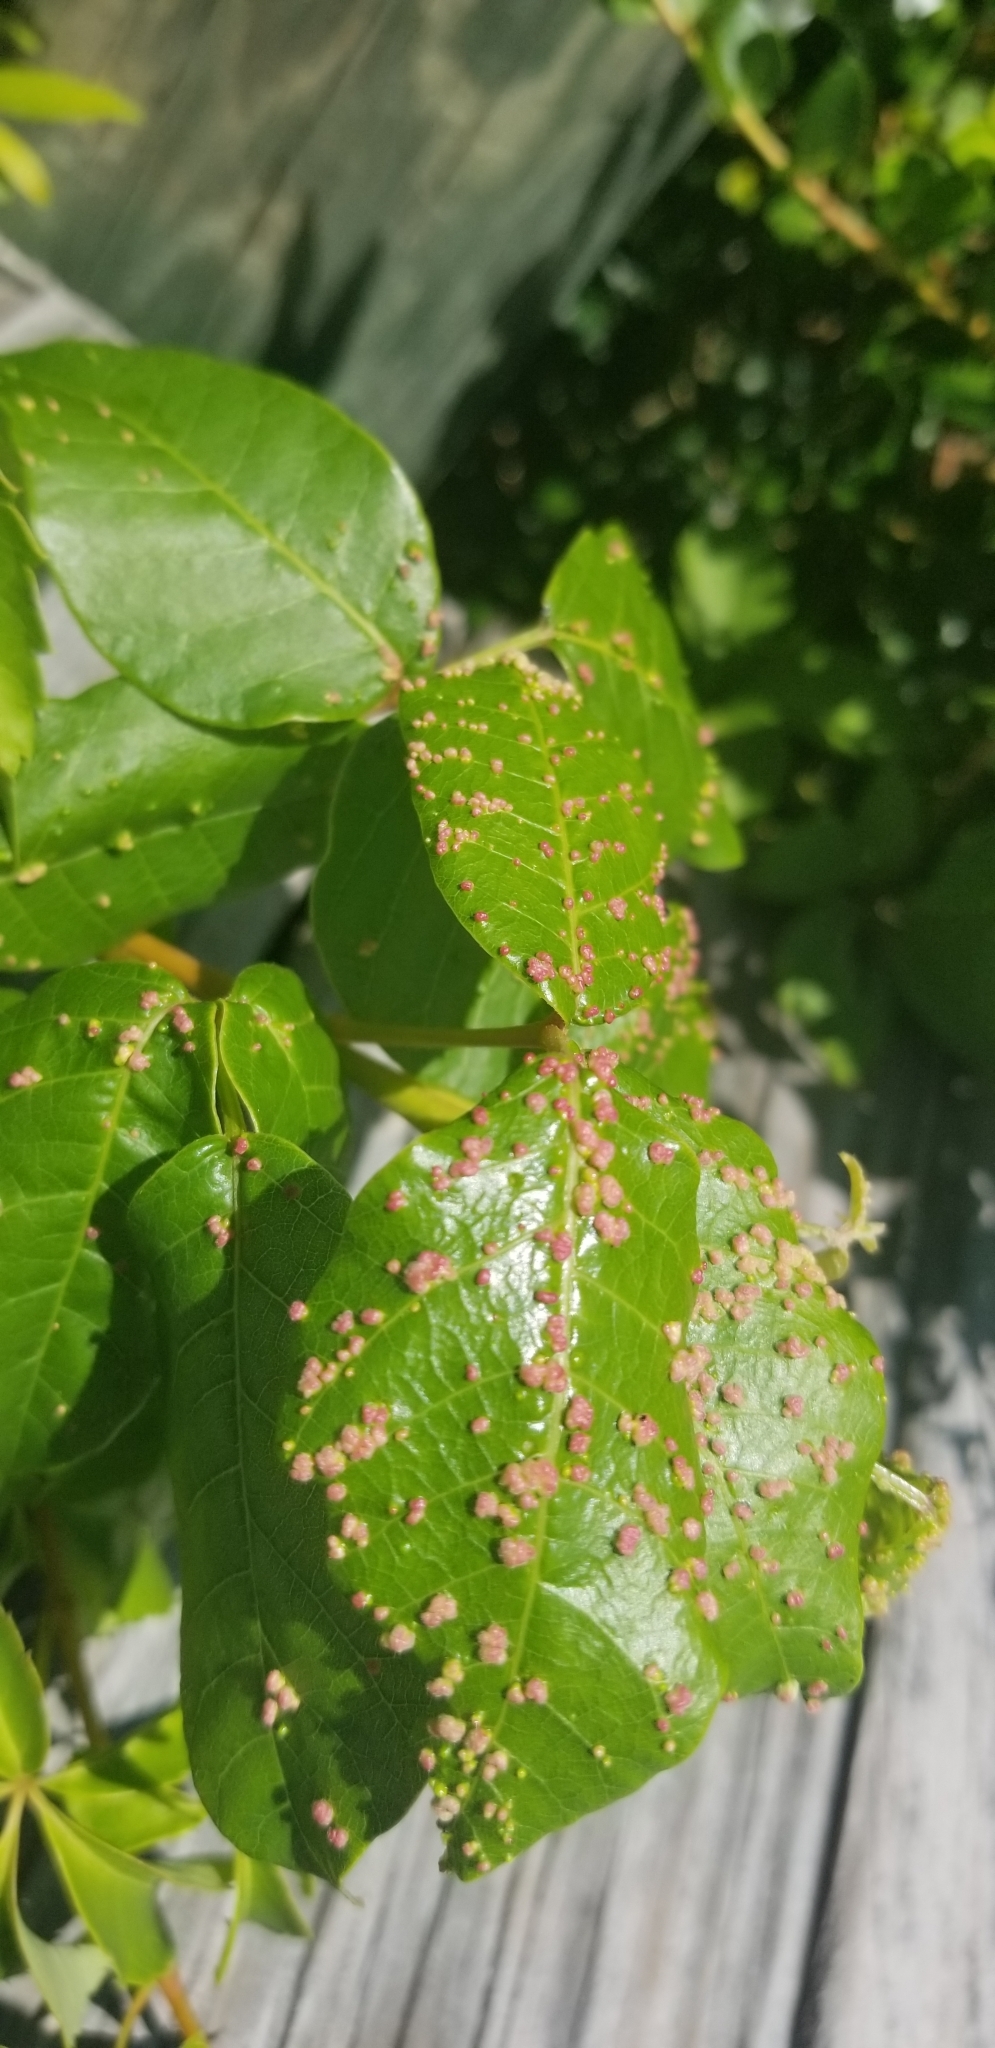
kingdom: Animalia
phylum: Arthropoda
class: Arachnida
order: Trombidiformes
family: Eriophyidae
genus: Aculops
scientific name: Aculops
